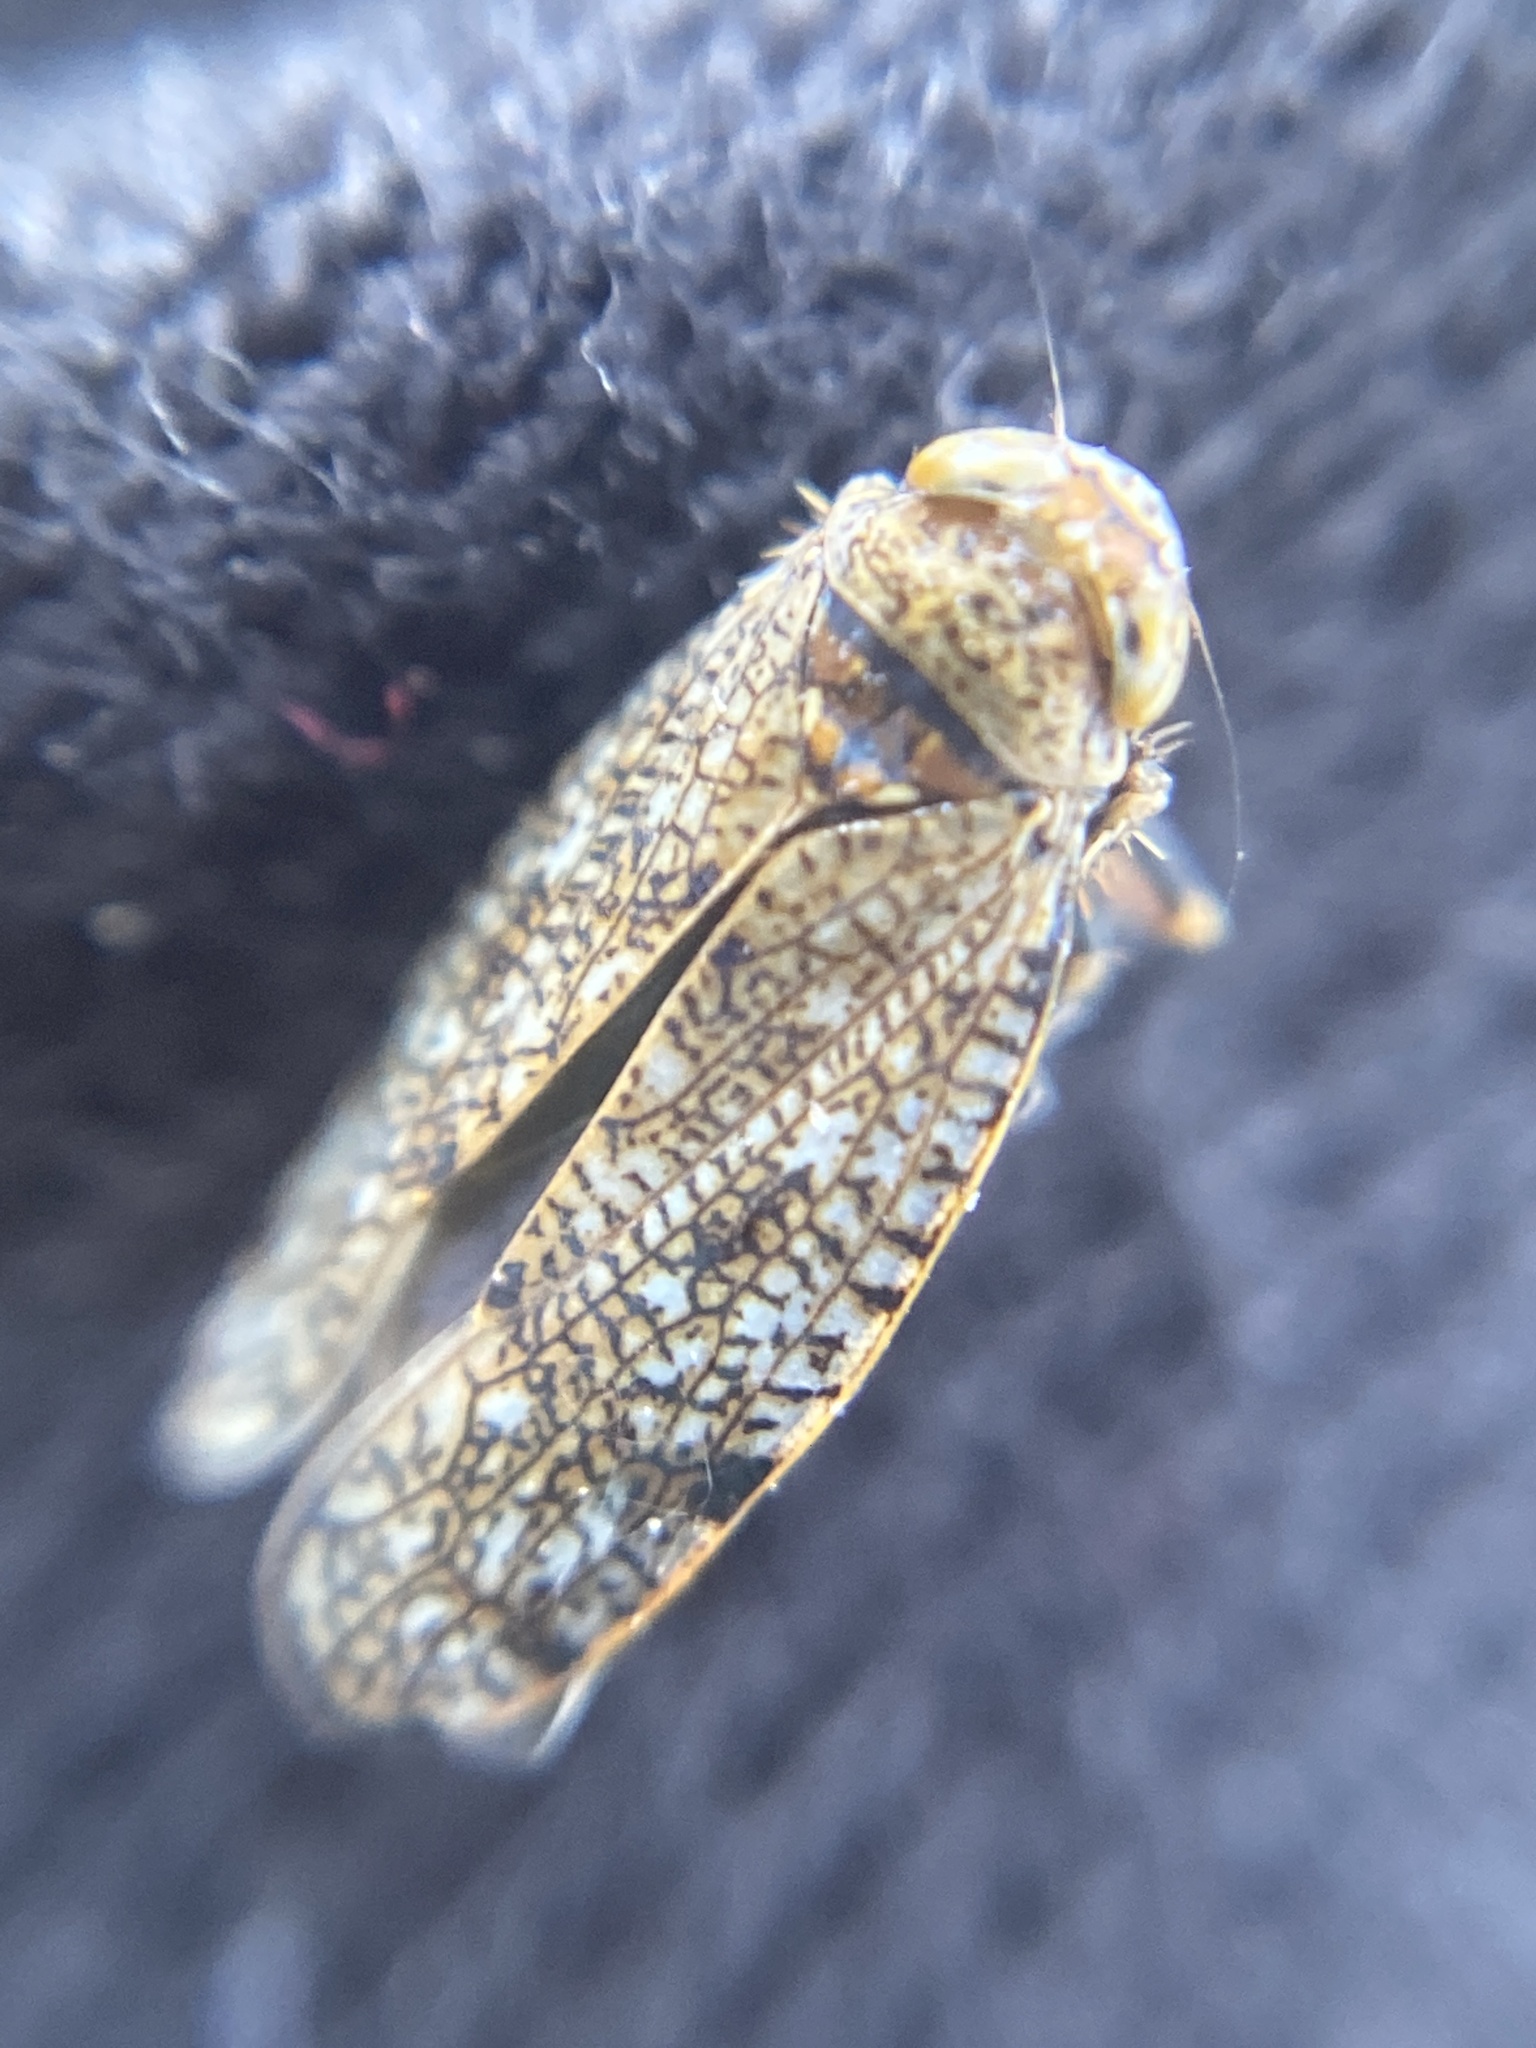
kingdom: Animalia
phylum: Arthropoda
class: Insecta
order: Hemiptera
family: Cicadellidae
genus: Orientus
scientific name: Orientus ishidae
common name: Japanese leafhopper
